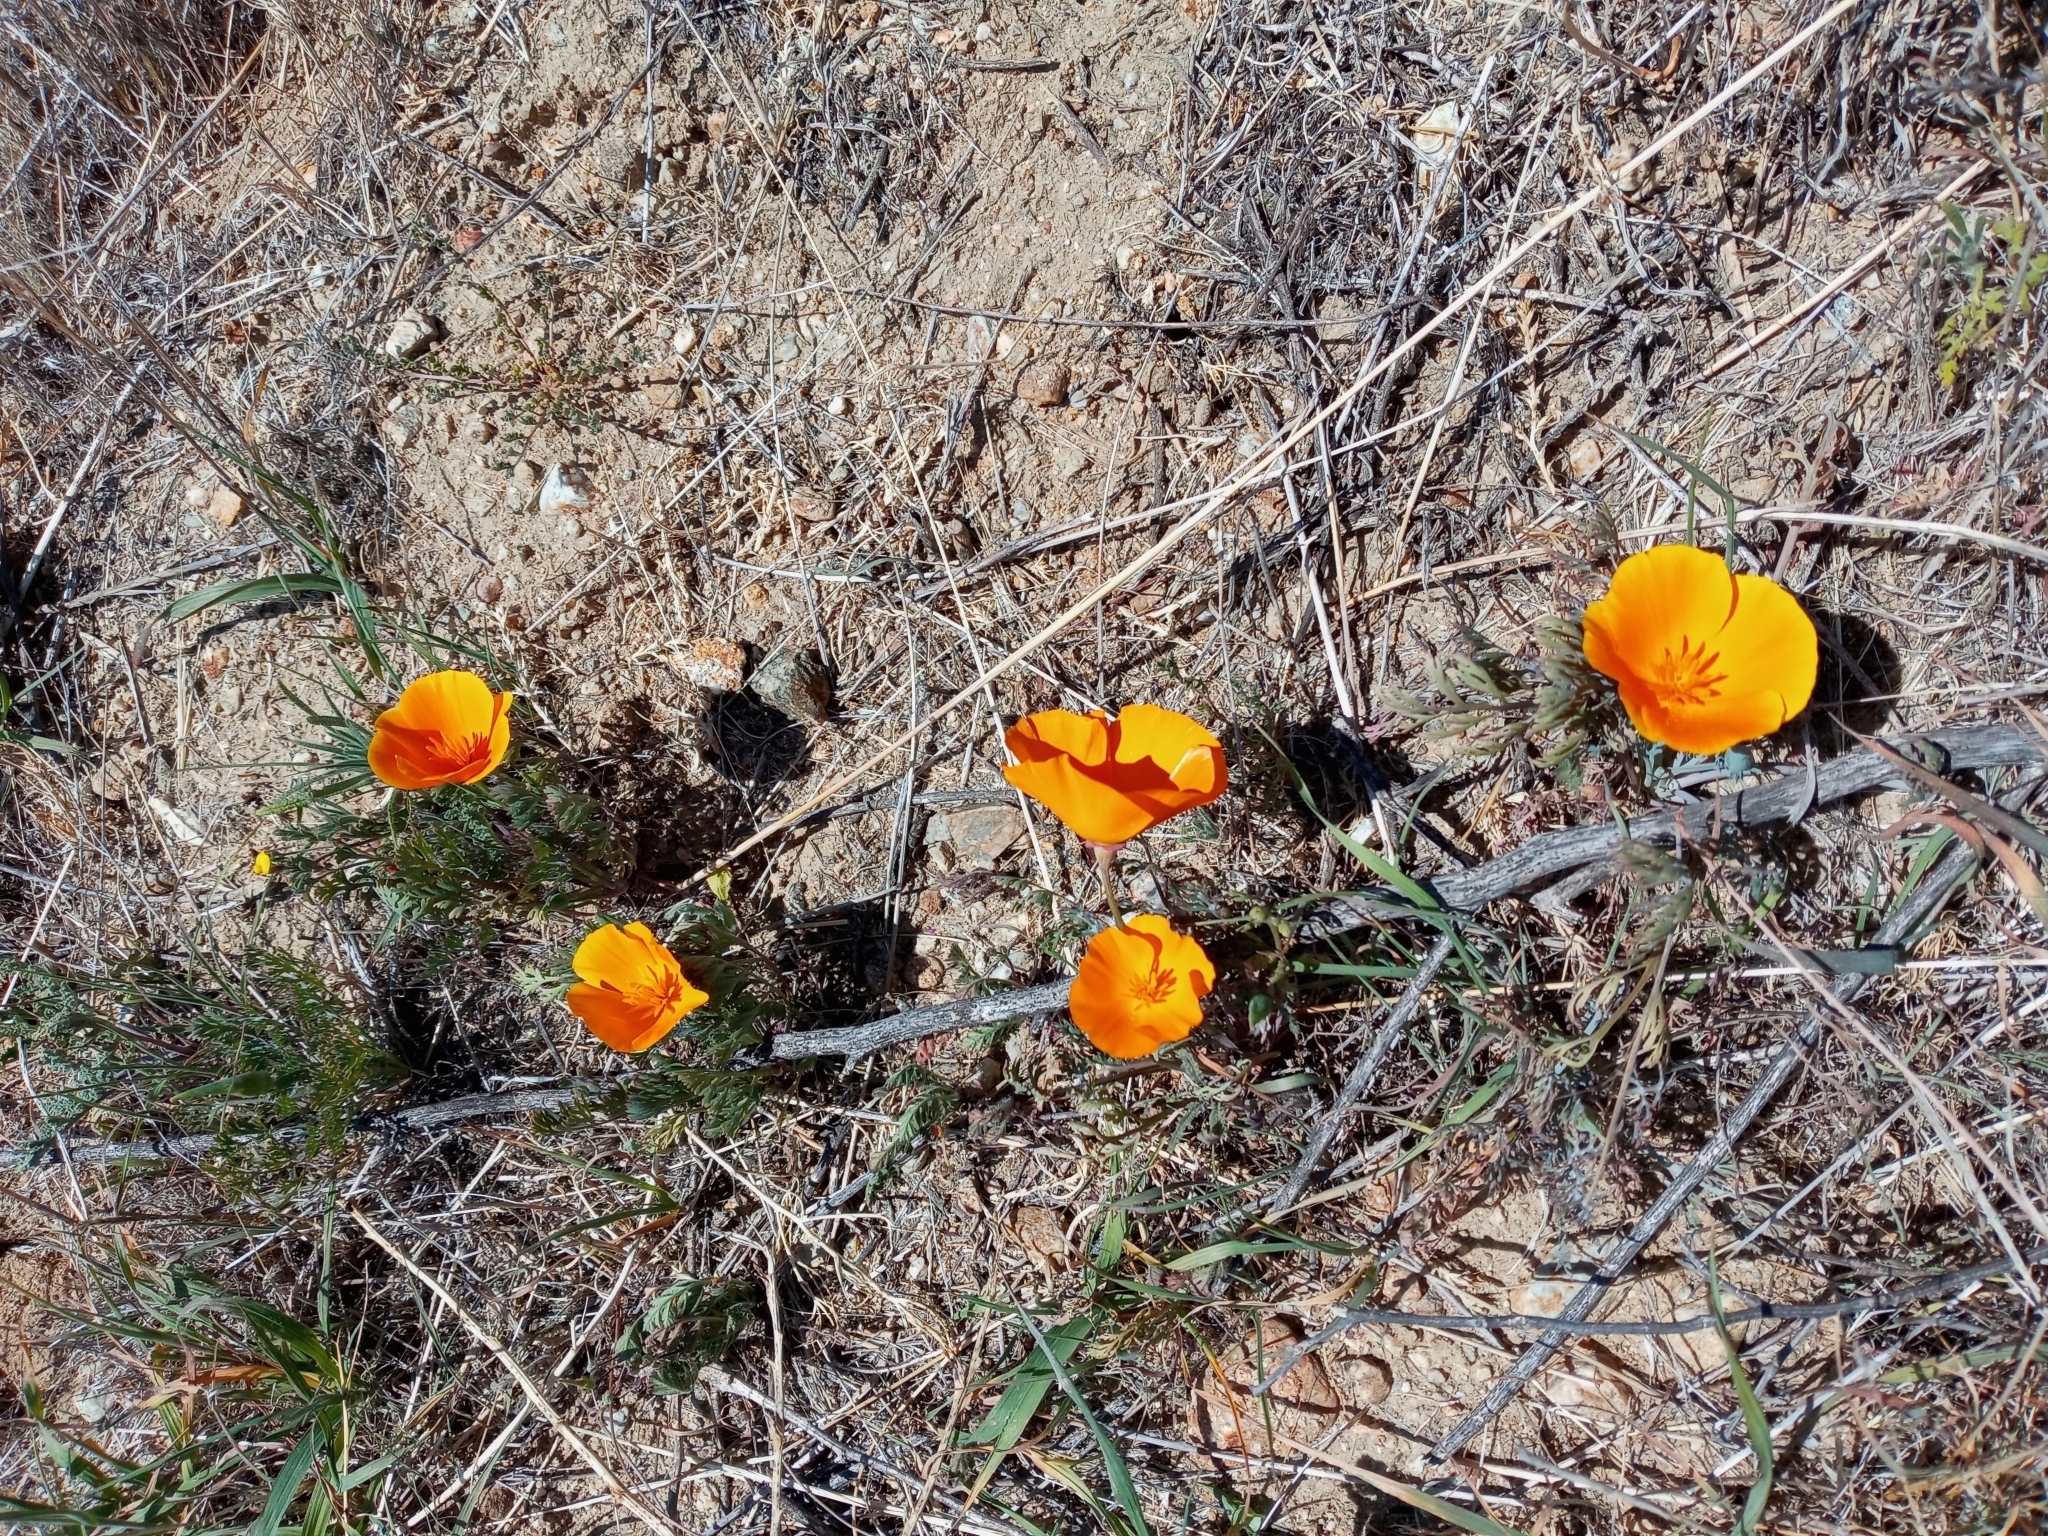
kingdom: Plantae
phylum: Tracheophyta
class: Magnoliopsida
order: Ranunculales
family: Papaveraceae
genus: Eschscholzia
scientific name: Eschscholzia californica
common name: California poppy
